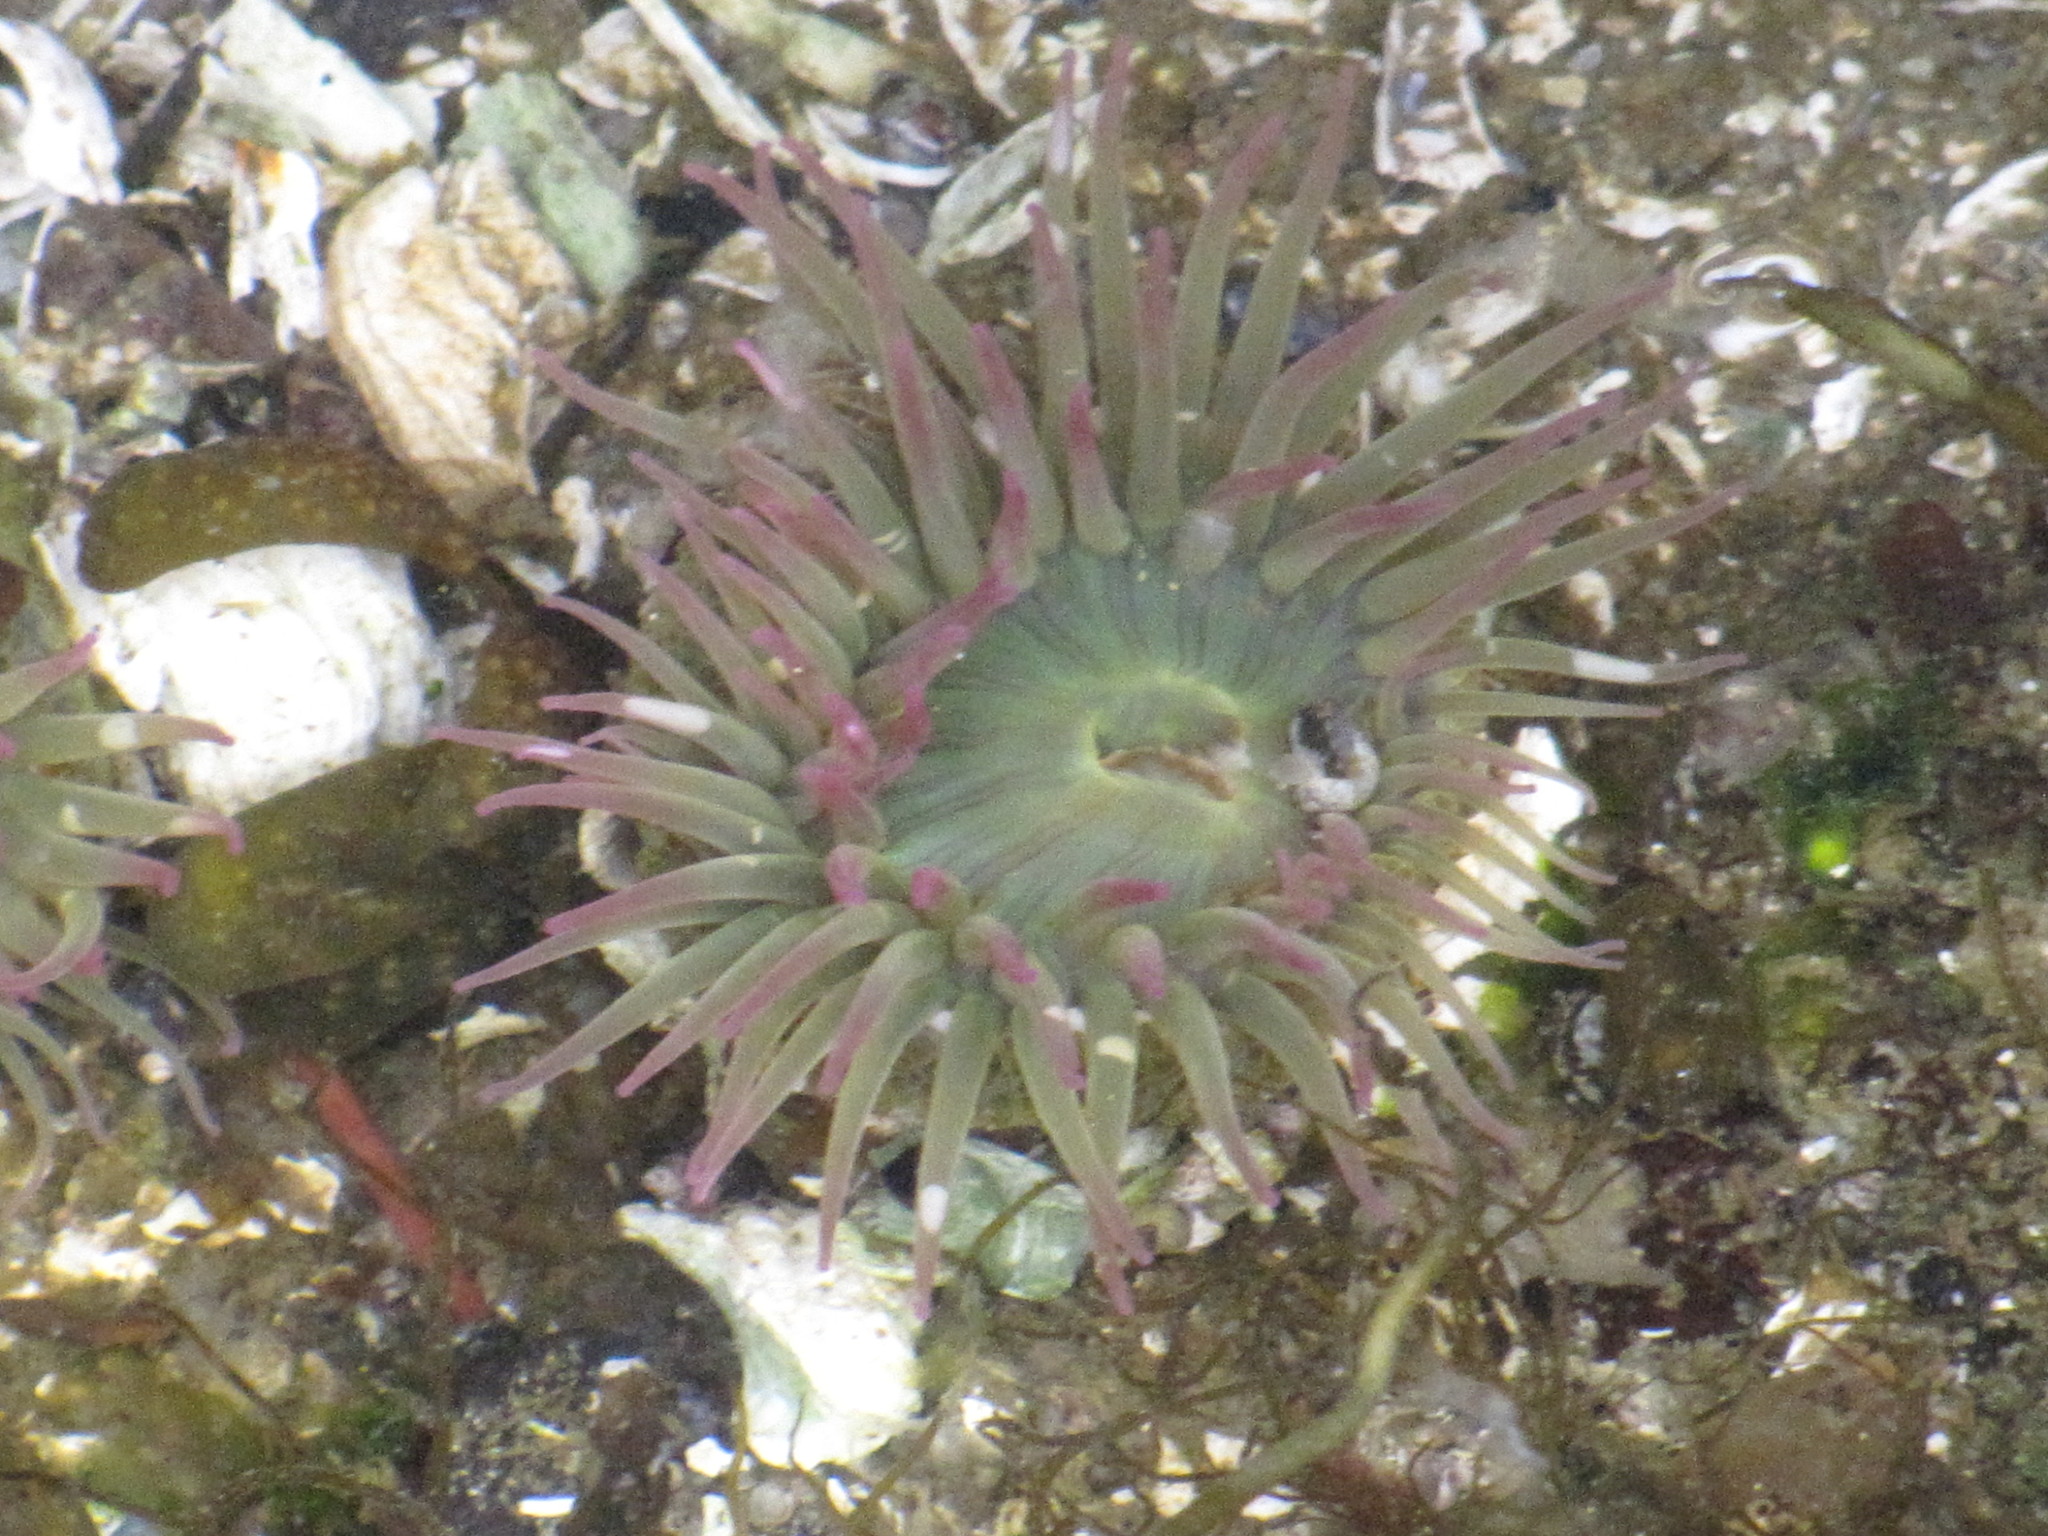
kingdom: Animalia
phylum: Cnidaria
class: Anthozoa
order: Actiniaria
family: Actiniidae
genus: Anthopleura
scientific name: Anthopleura elegantissima
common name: Clonal anemone
